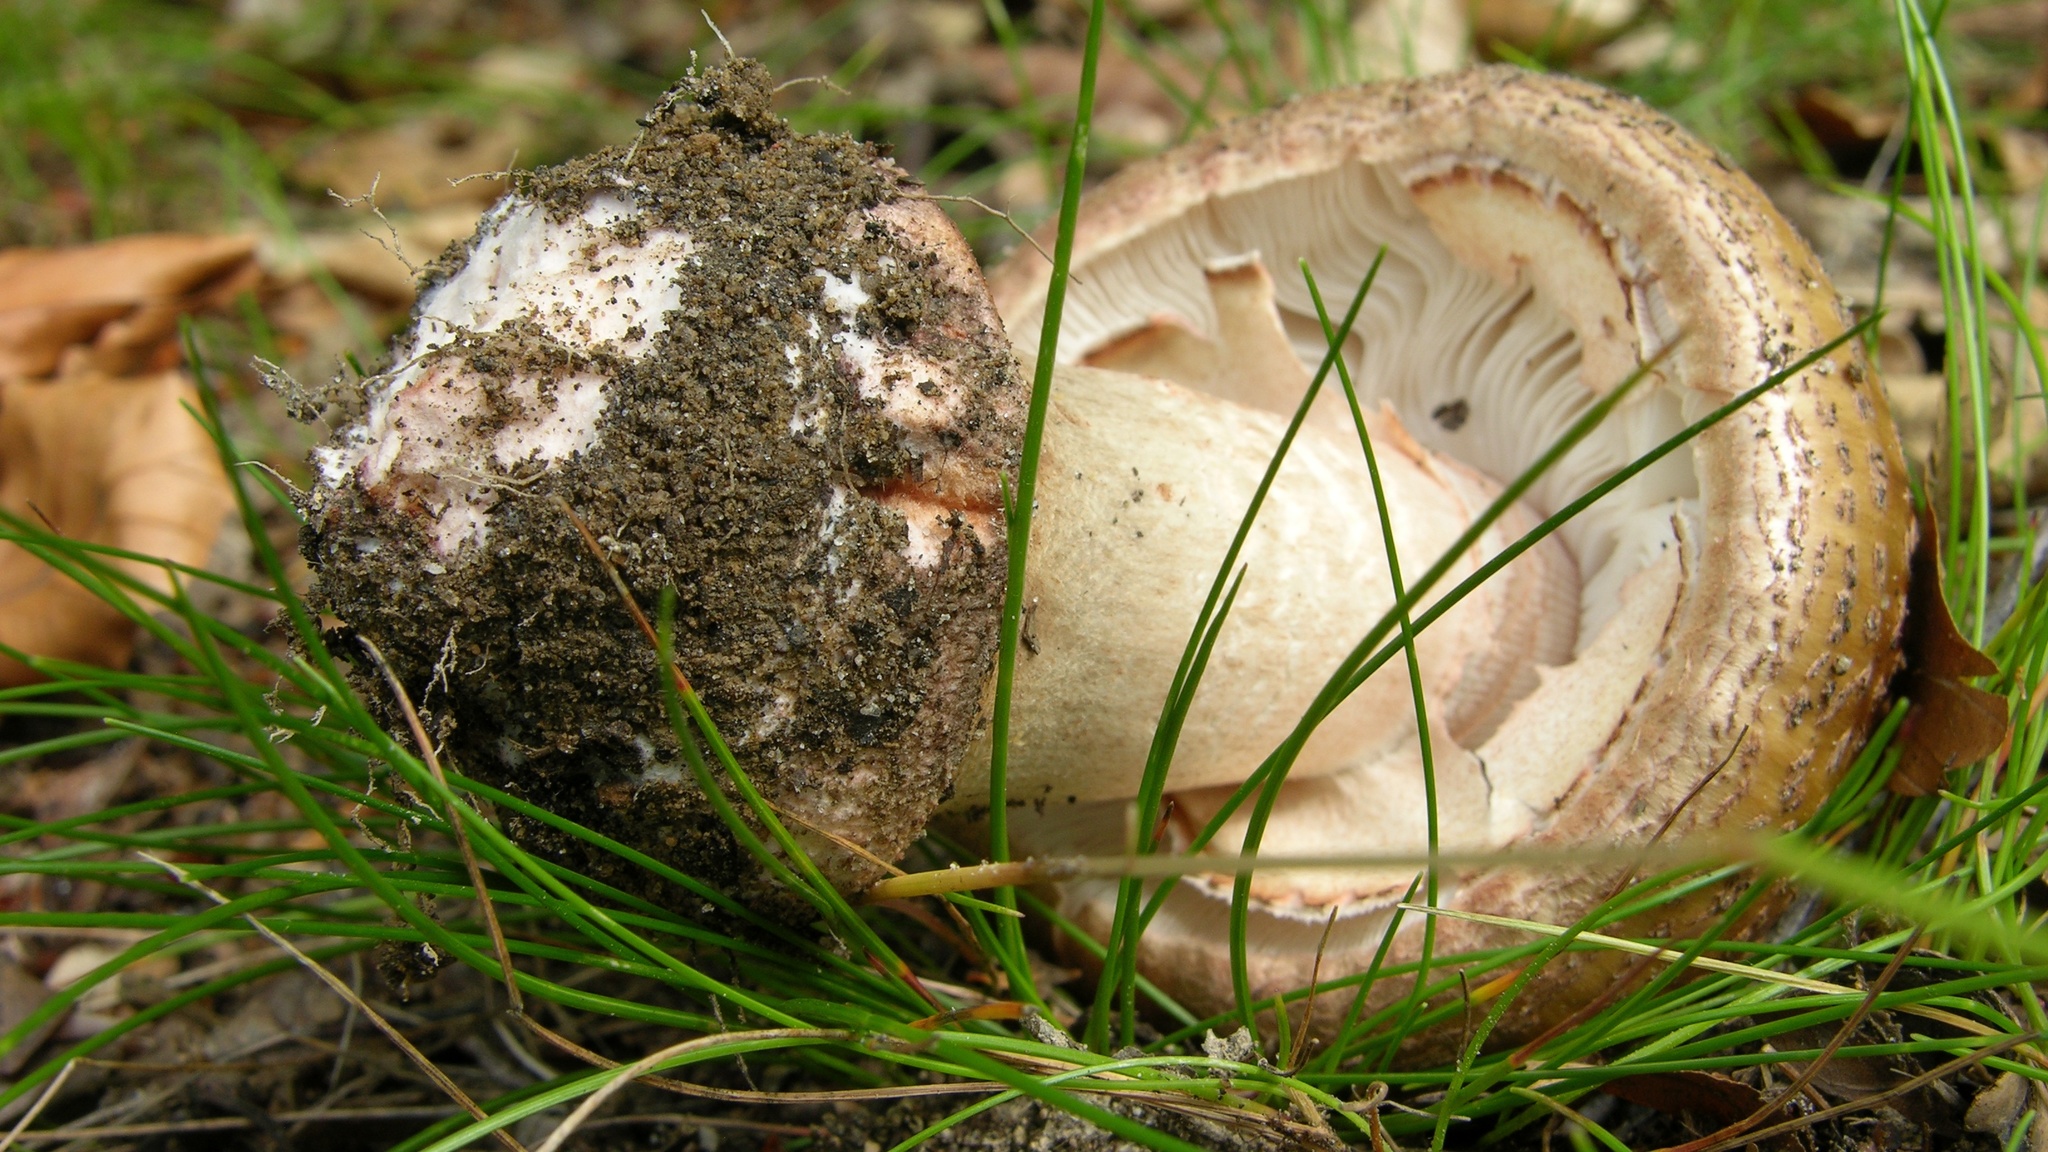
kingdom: Fungi
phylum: Basidiomycota
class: Agaricomycetes
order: Agaricales
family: Amanitaceae
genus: Amanita
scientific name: Amanita rubescens
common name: Blusher
